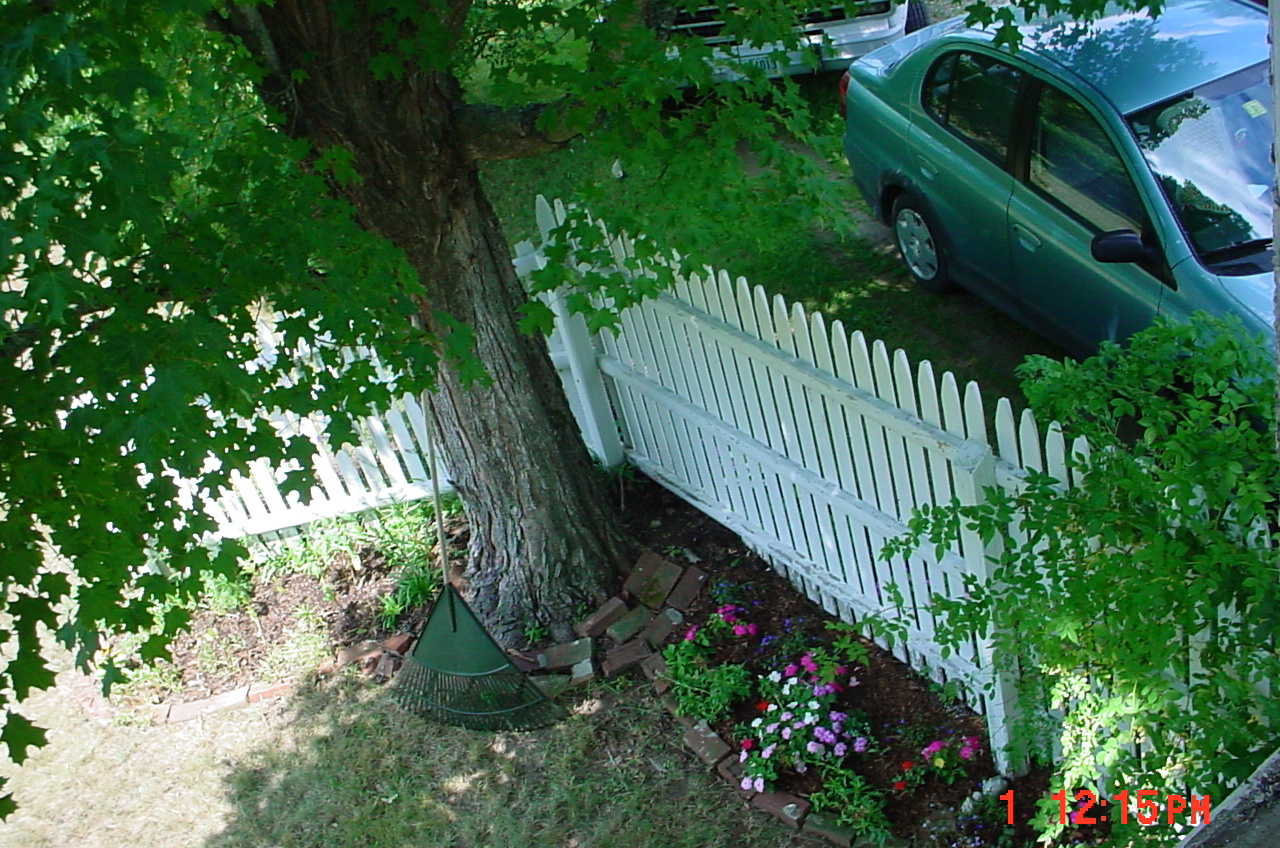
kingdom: Plantae
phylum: Tracheophyta
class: Magnoliopsida
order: Sapindales
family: Sapindaceae
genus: Acer
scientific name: Acer saccharum
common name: Sugar maple
